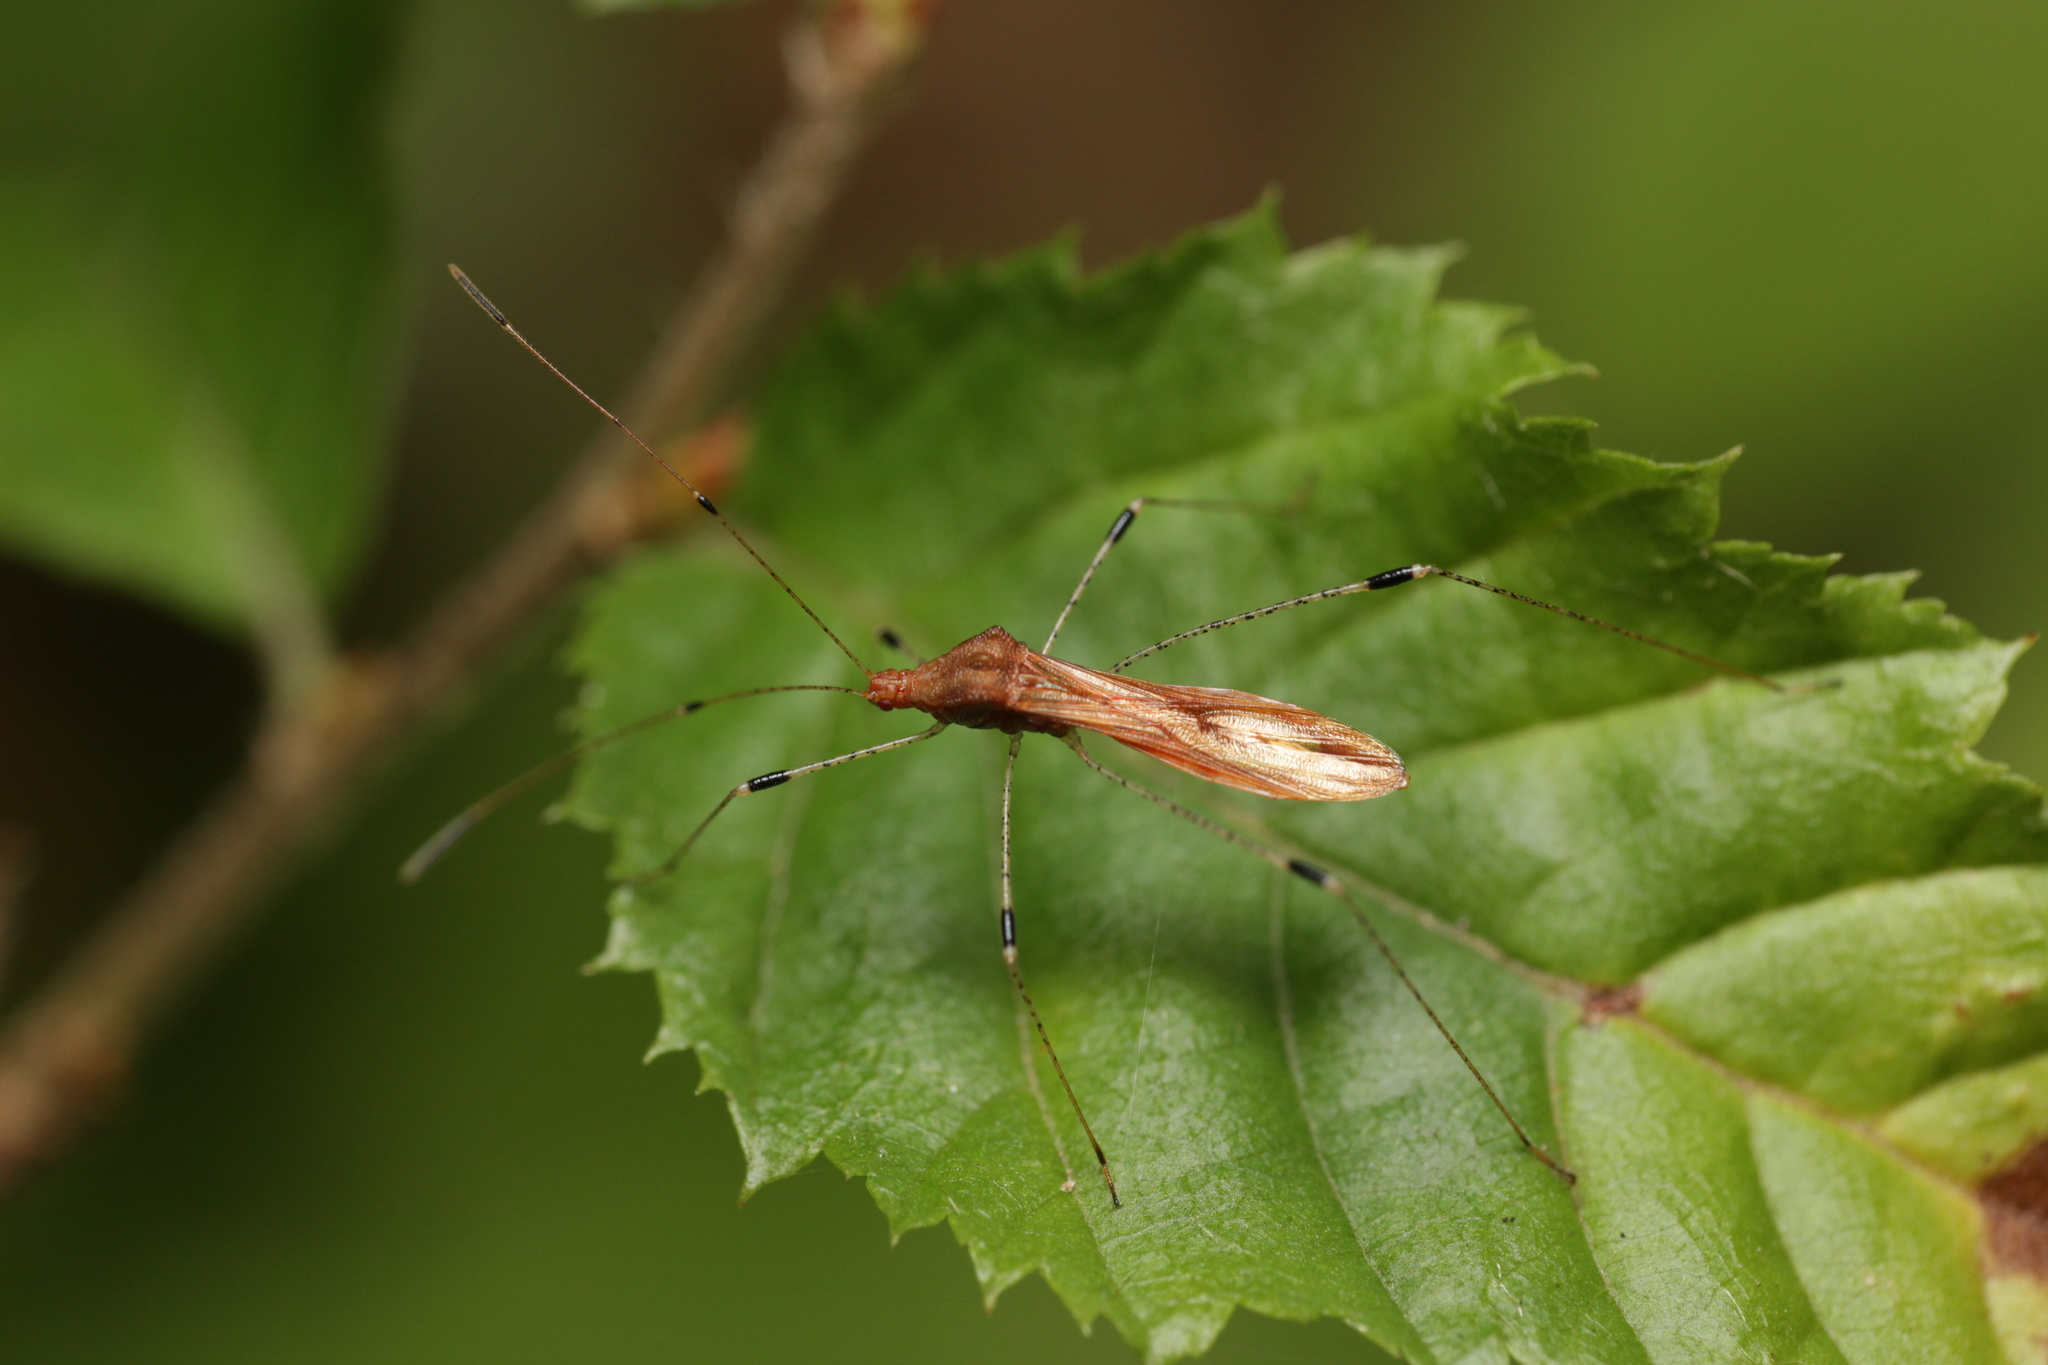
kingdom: Animalia
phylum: Arthropoda
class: Insecta
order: Hemiptera
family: Berytidae
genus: Metatropis
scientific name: Metatropis rufescens
